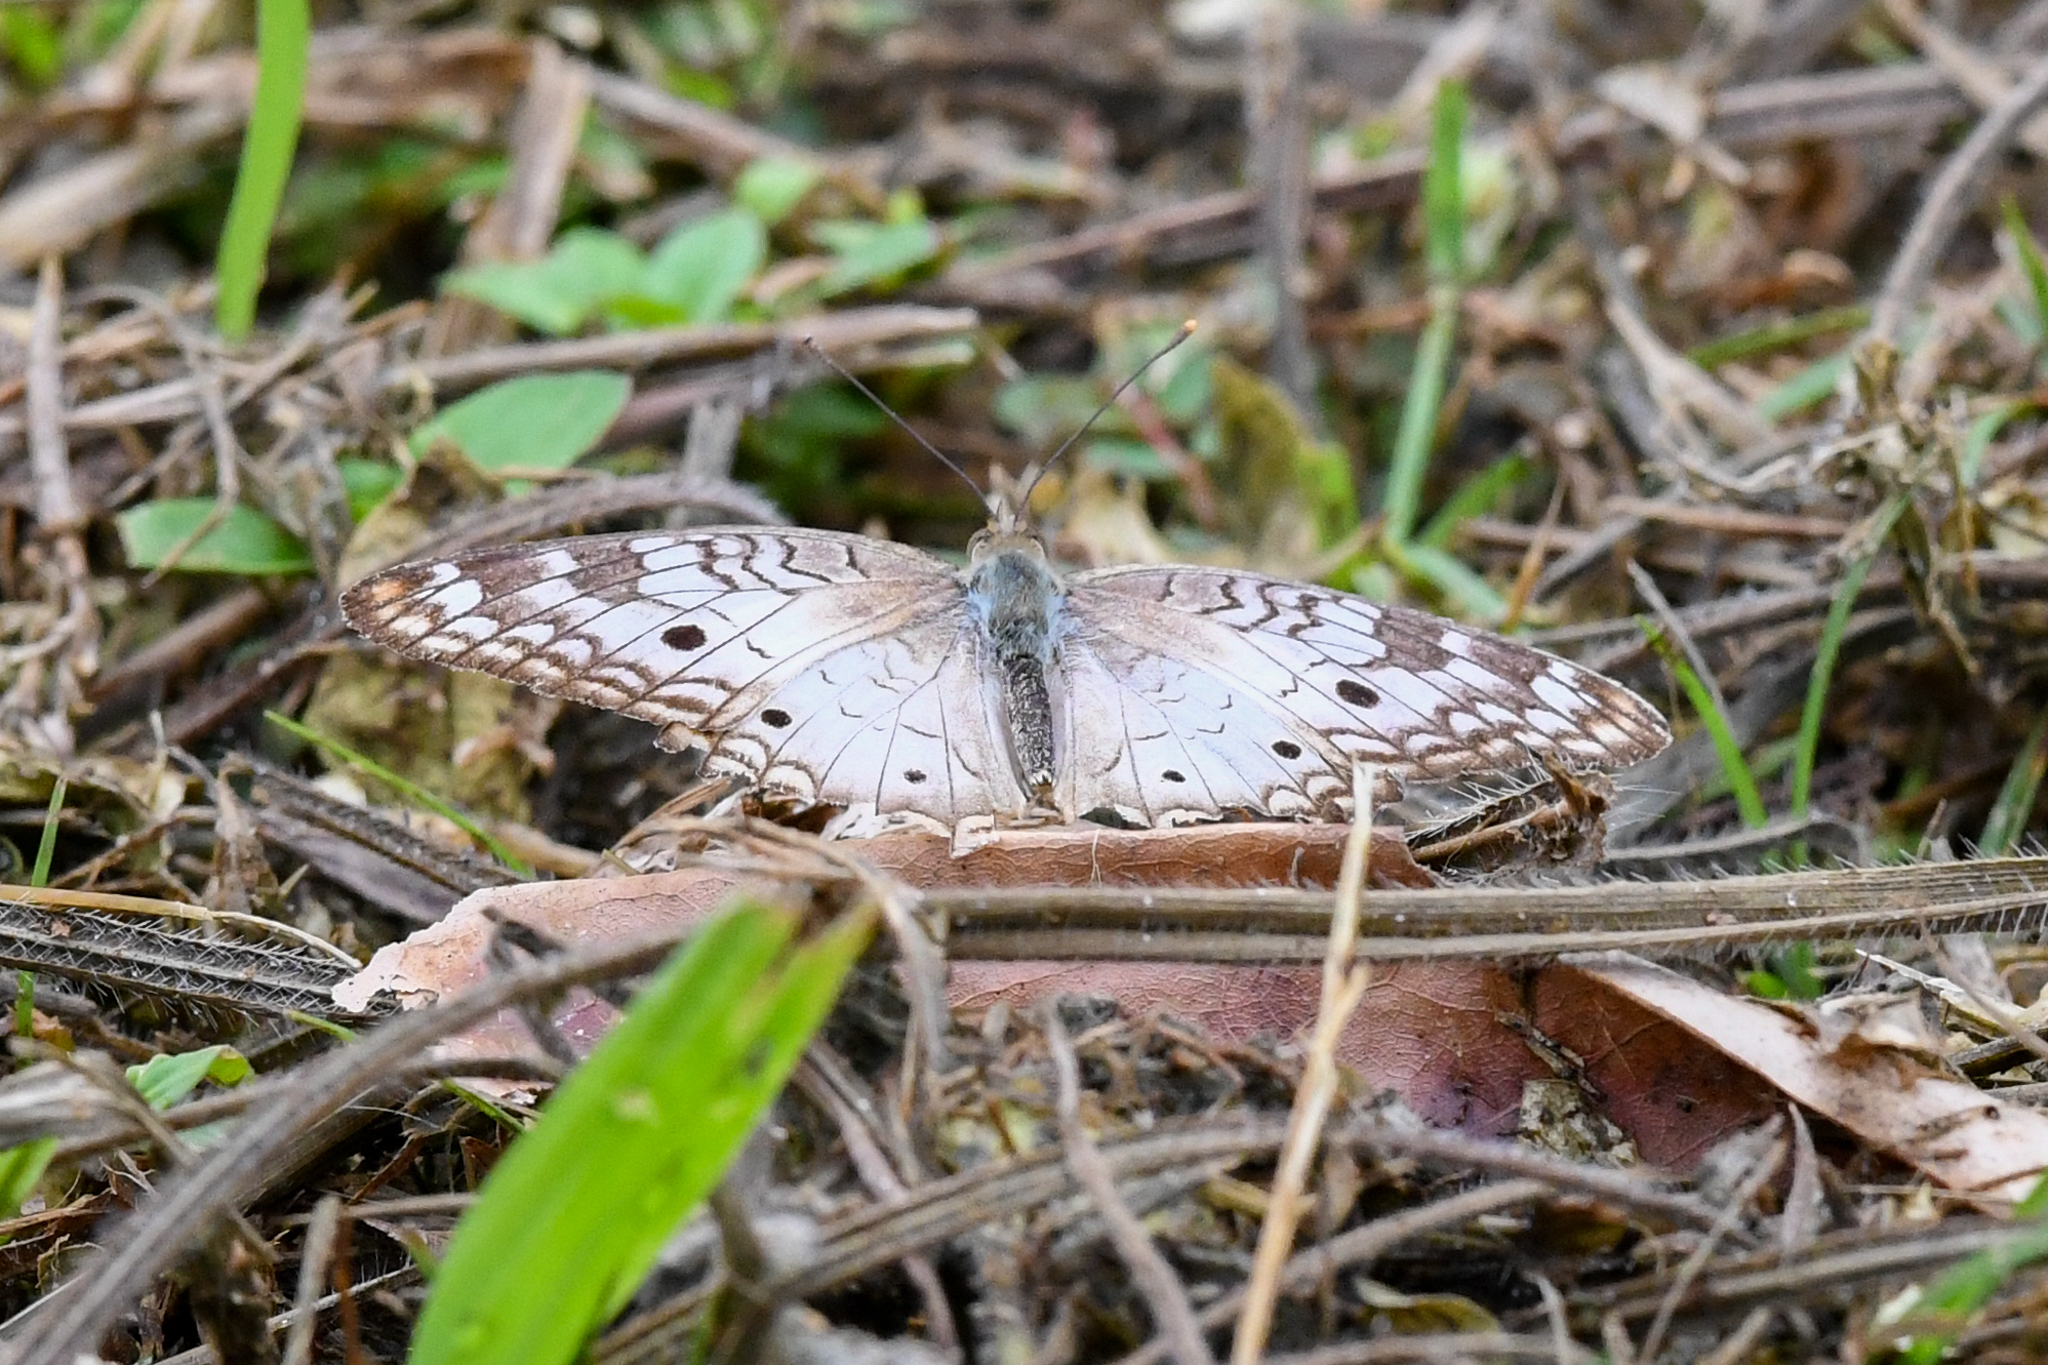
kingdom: Animalia
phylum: Arthropoda
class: Insecta
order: Lepidoptera
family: Nymphalidae
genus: Anartia
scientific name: Anartia jatrophae
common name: White peacock
